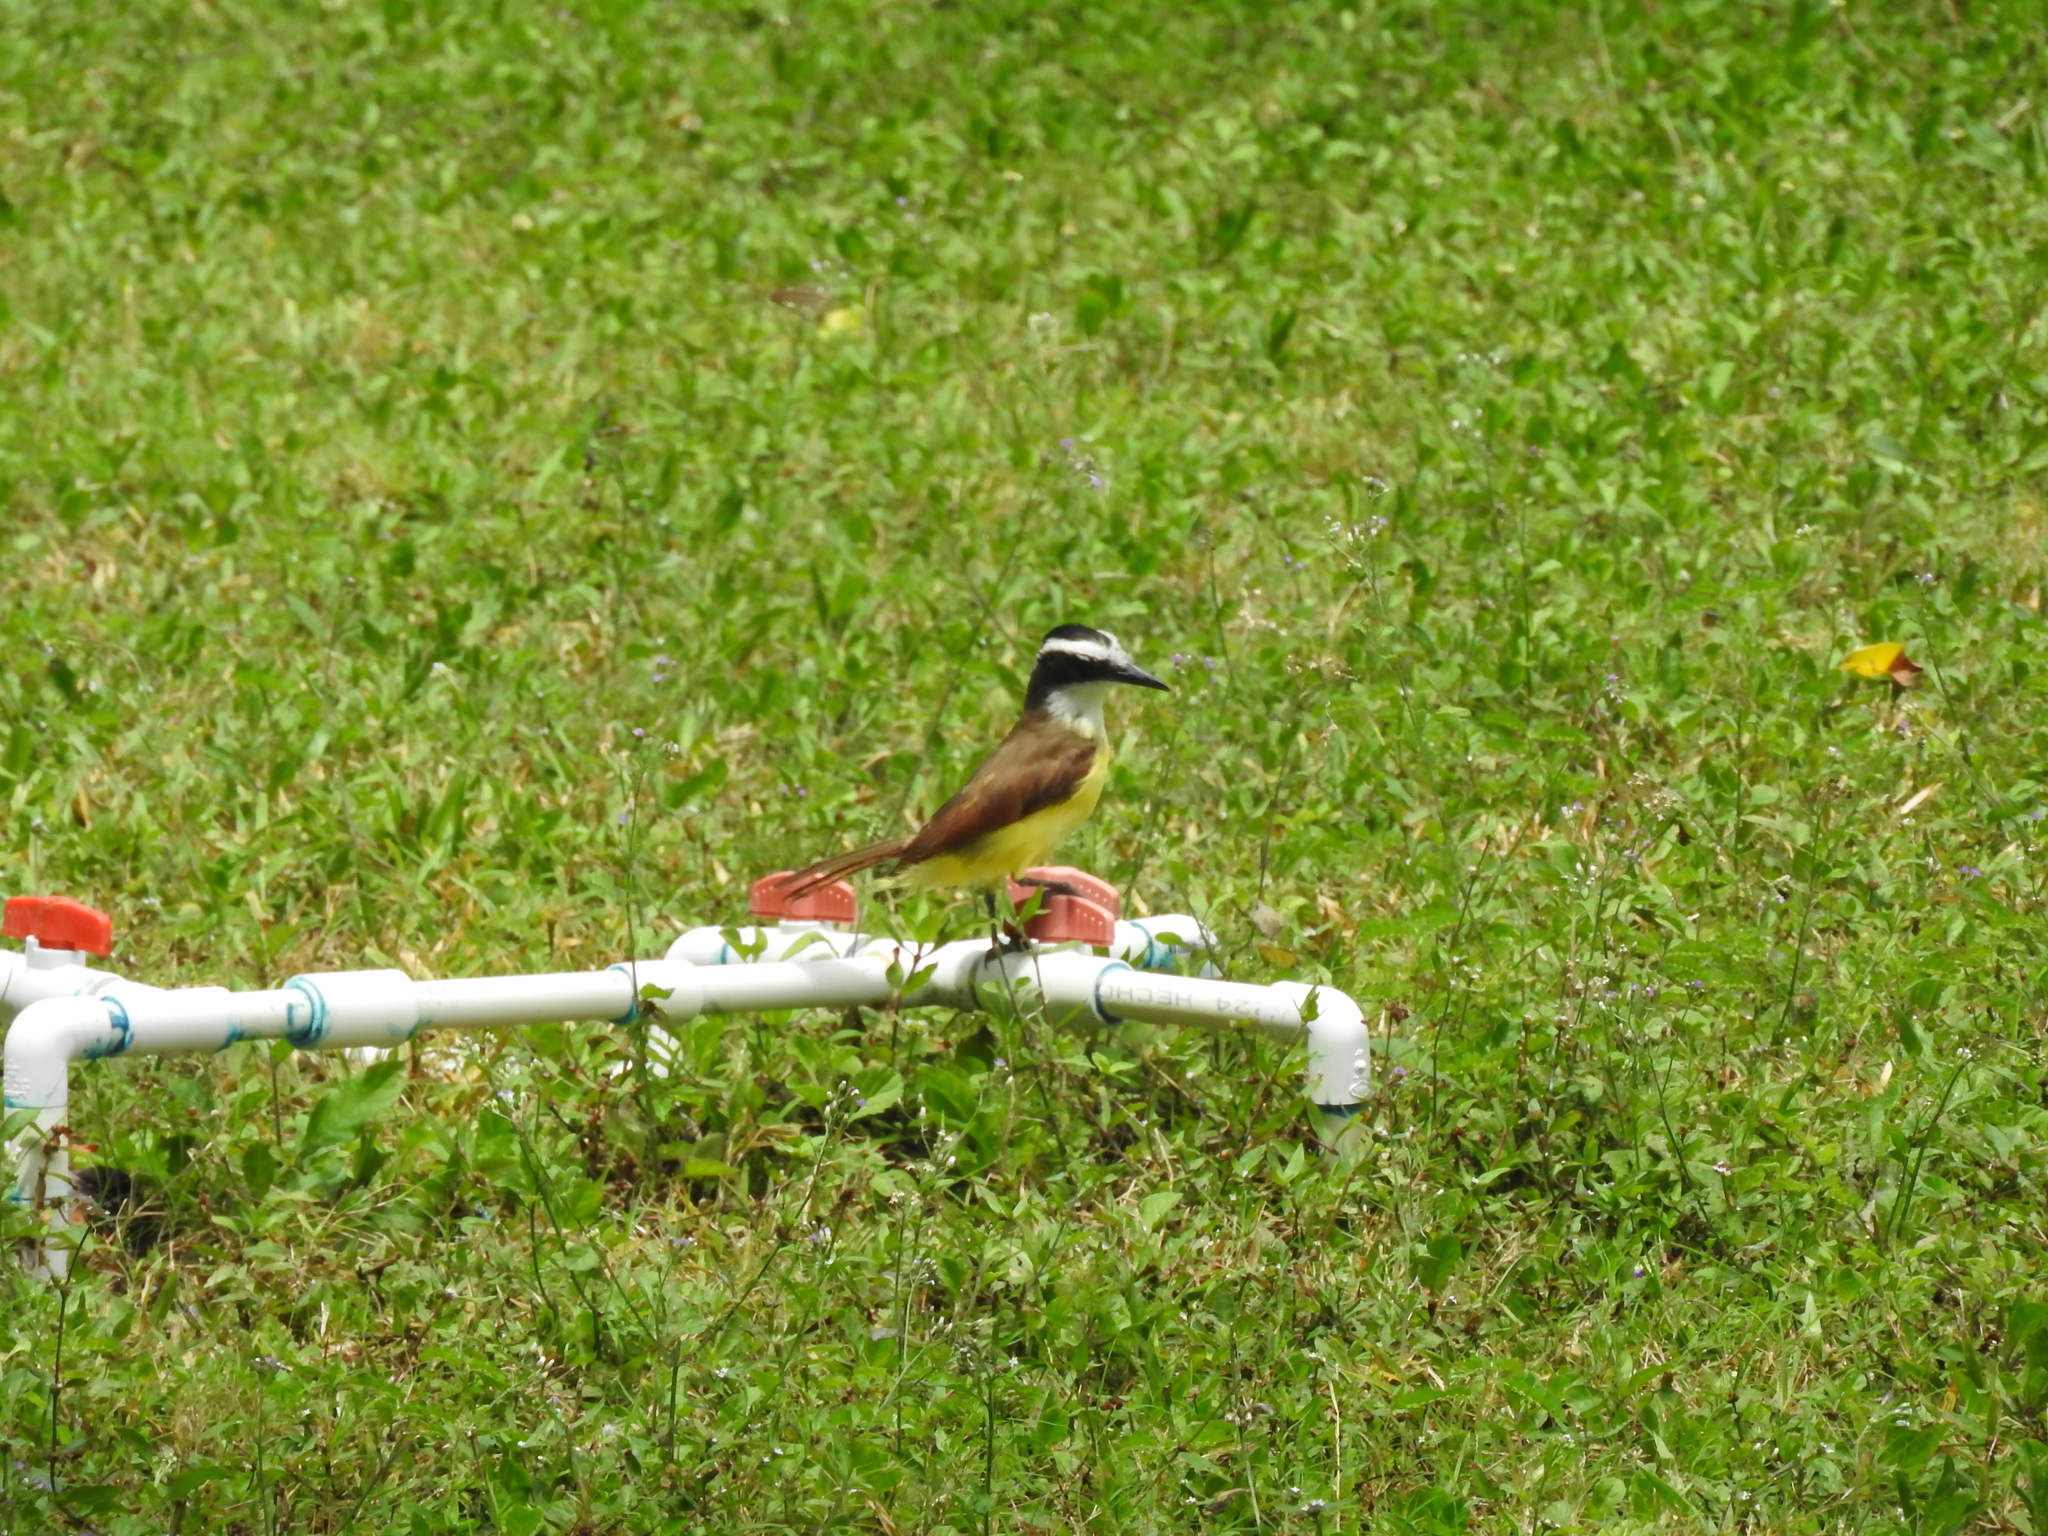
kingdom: Animalia
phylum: Chordata
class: Aves
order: Passeriformes
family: Tyrannidae
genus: Pitangus
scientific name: Pitangus sulphuratus
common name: Great kiskadee
